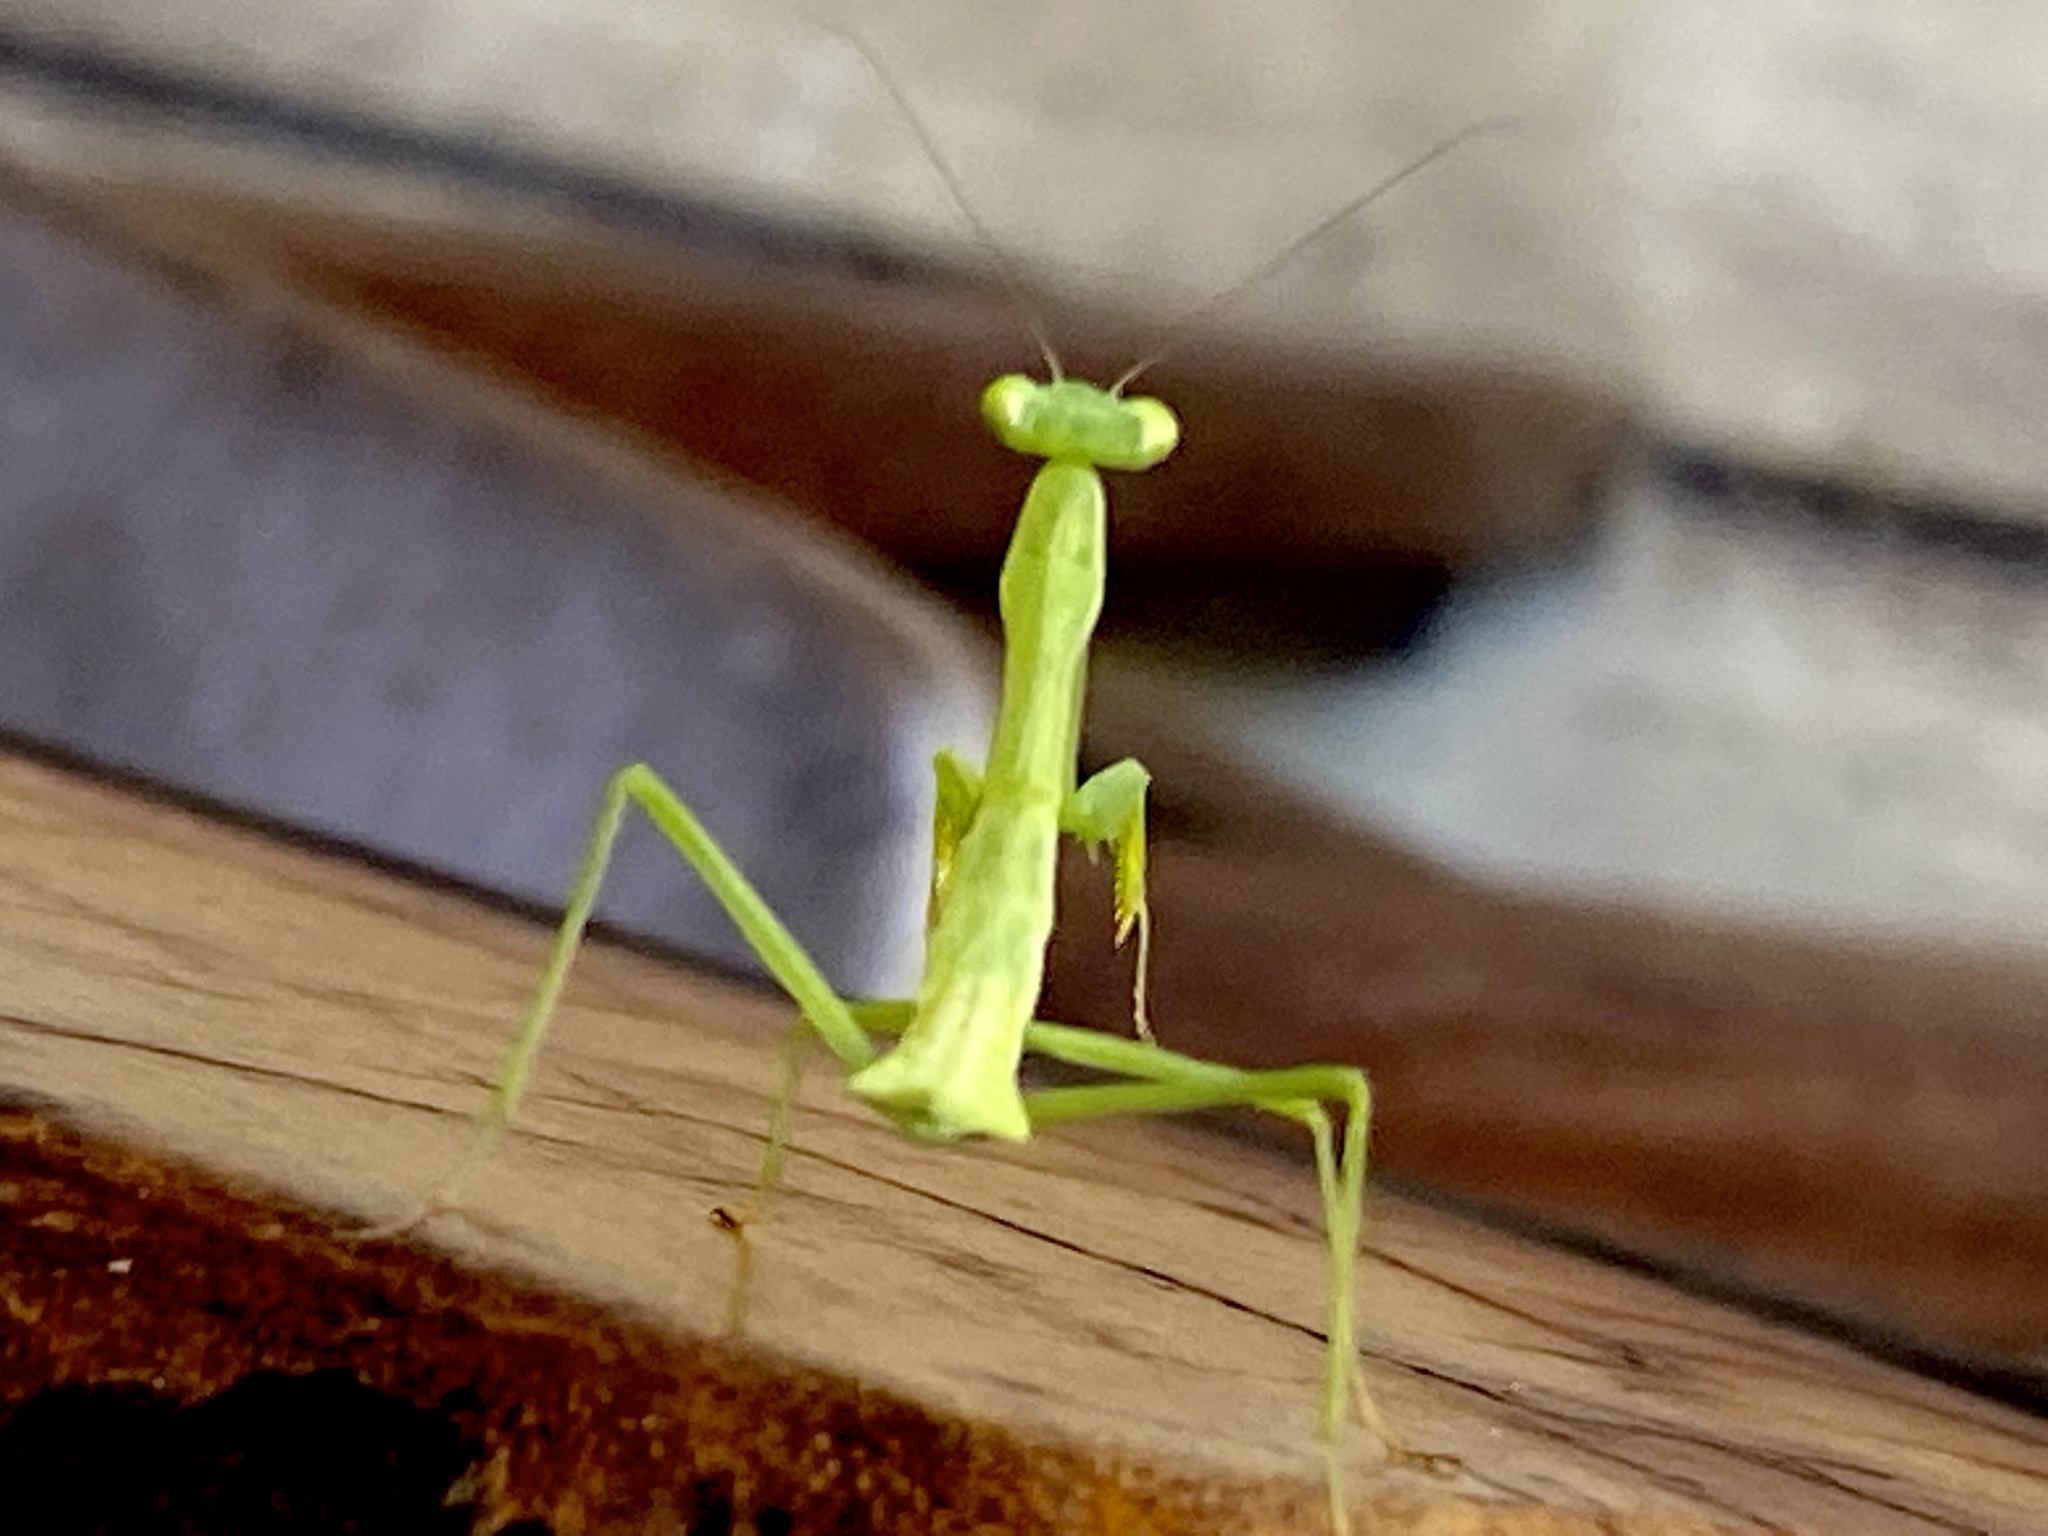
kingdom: Animalia
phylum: Arthropoda
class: Insecta
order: Mantodea
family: Miomantidae
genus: Miomantis
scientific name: Miomantis caffra
